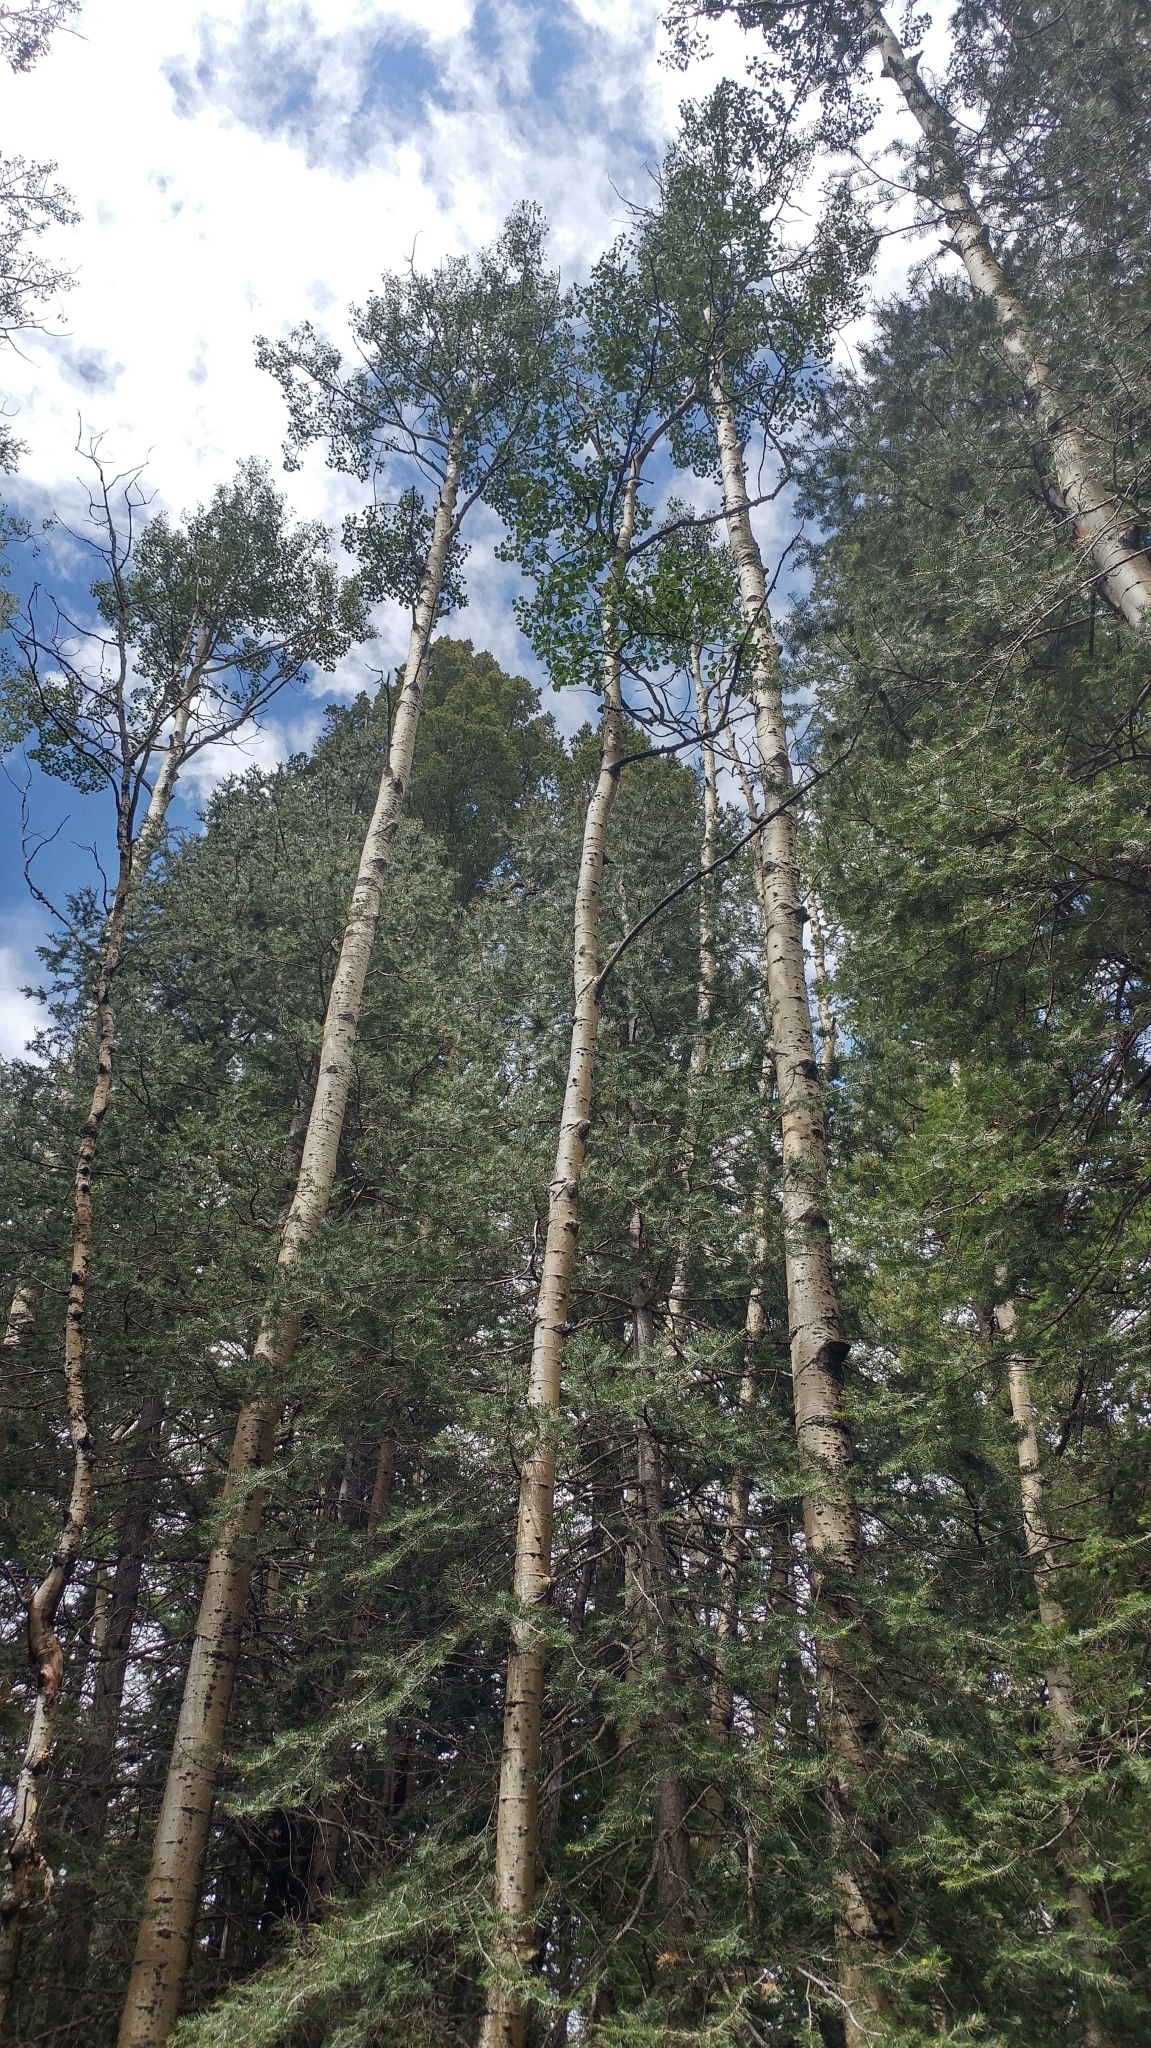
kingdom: Plantae
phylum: Tracheophyta
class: Magnoliopsida
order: Malpighiales
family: Salicaceae
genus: Populus
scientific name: Populus tremuloides
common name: Quaking aspen
